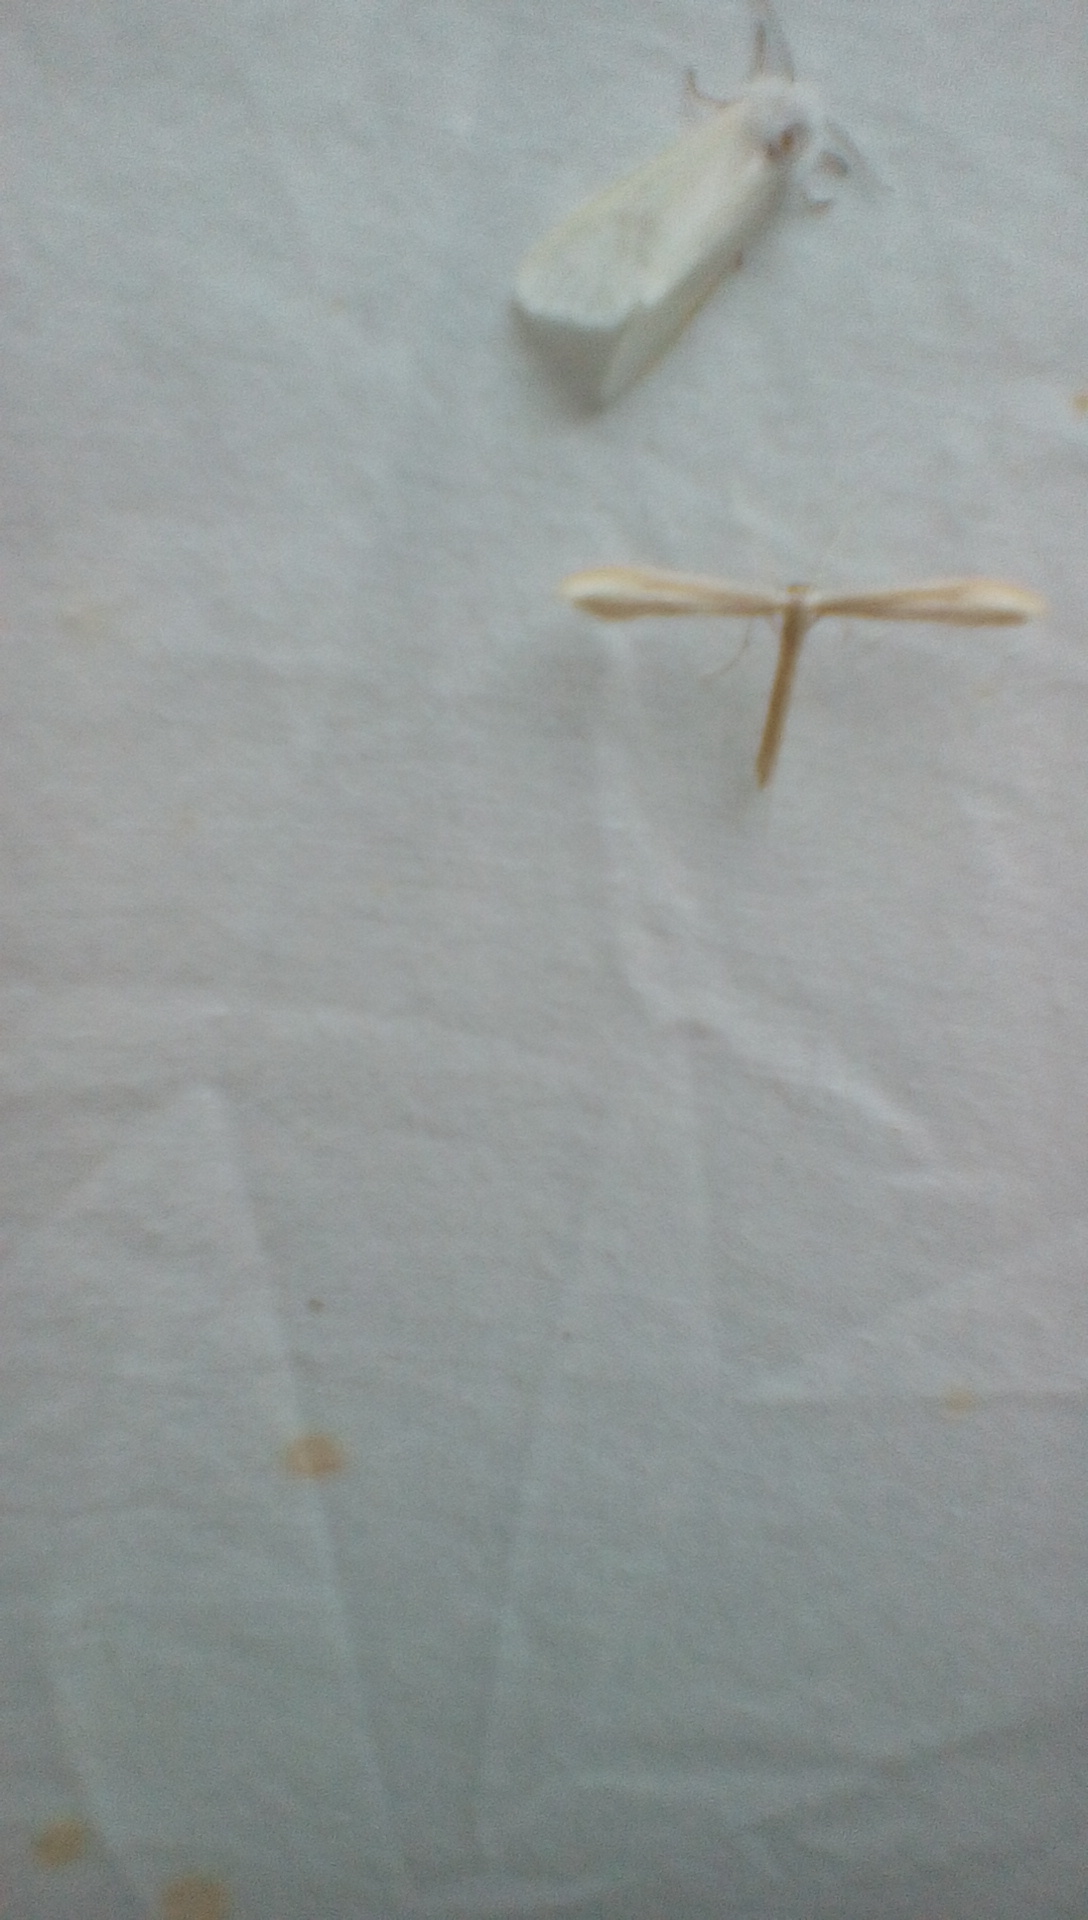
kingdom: Animalia
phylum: Arthropoda
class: Insecta
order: Lepidoptera
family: Pterophoridae
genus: Hellinsia
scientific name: Hellinsia
